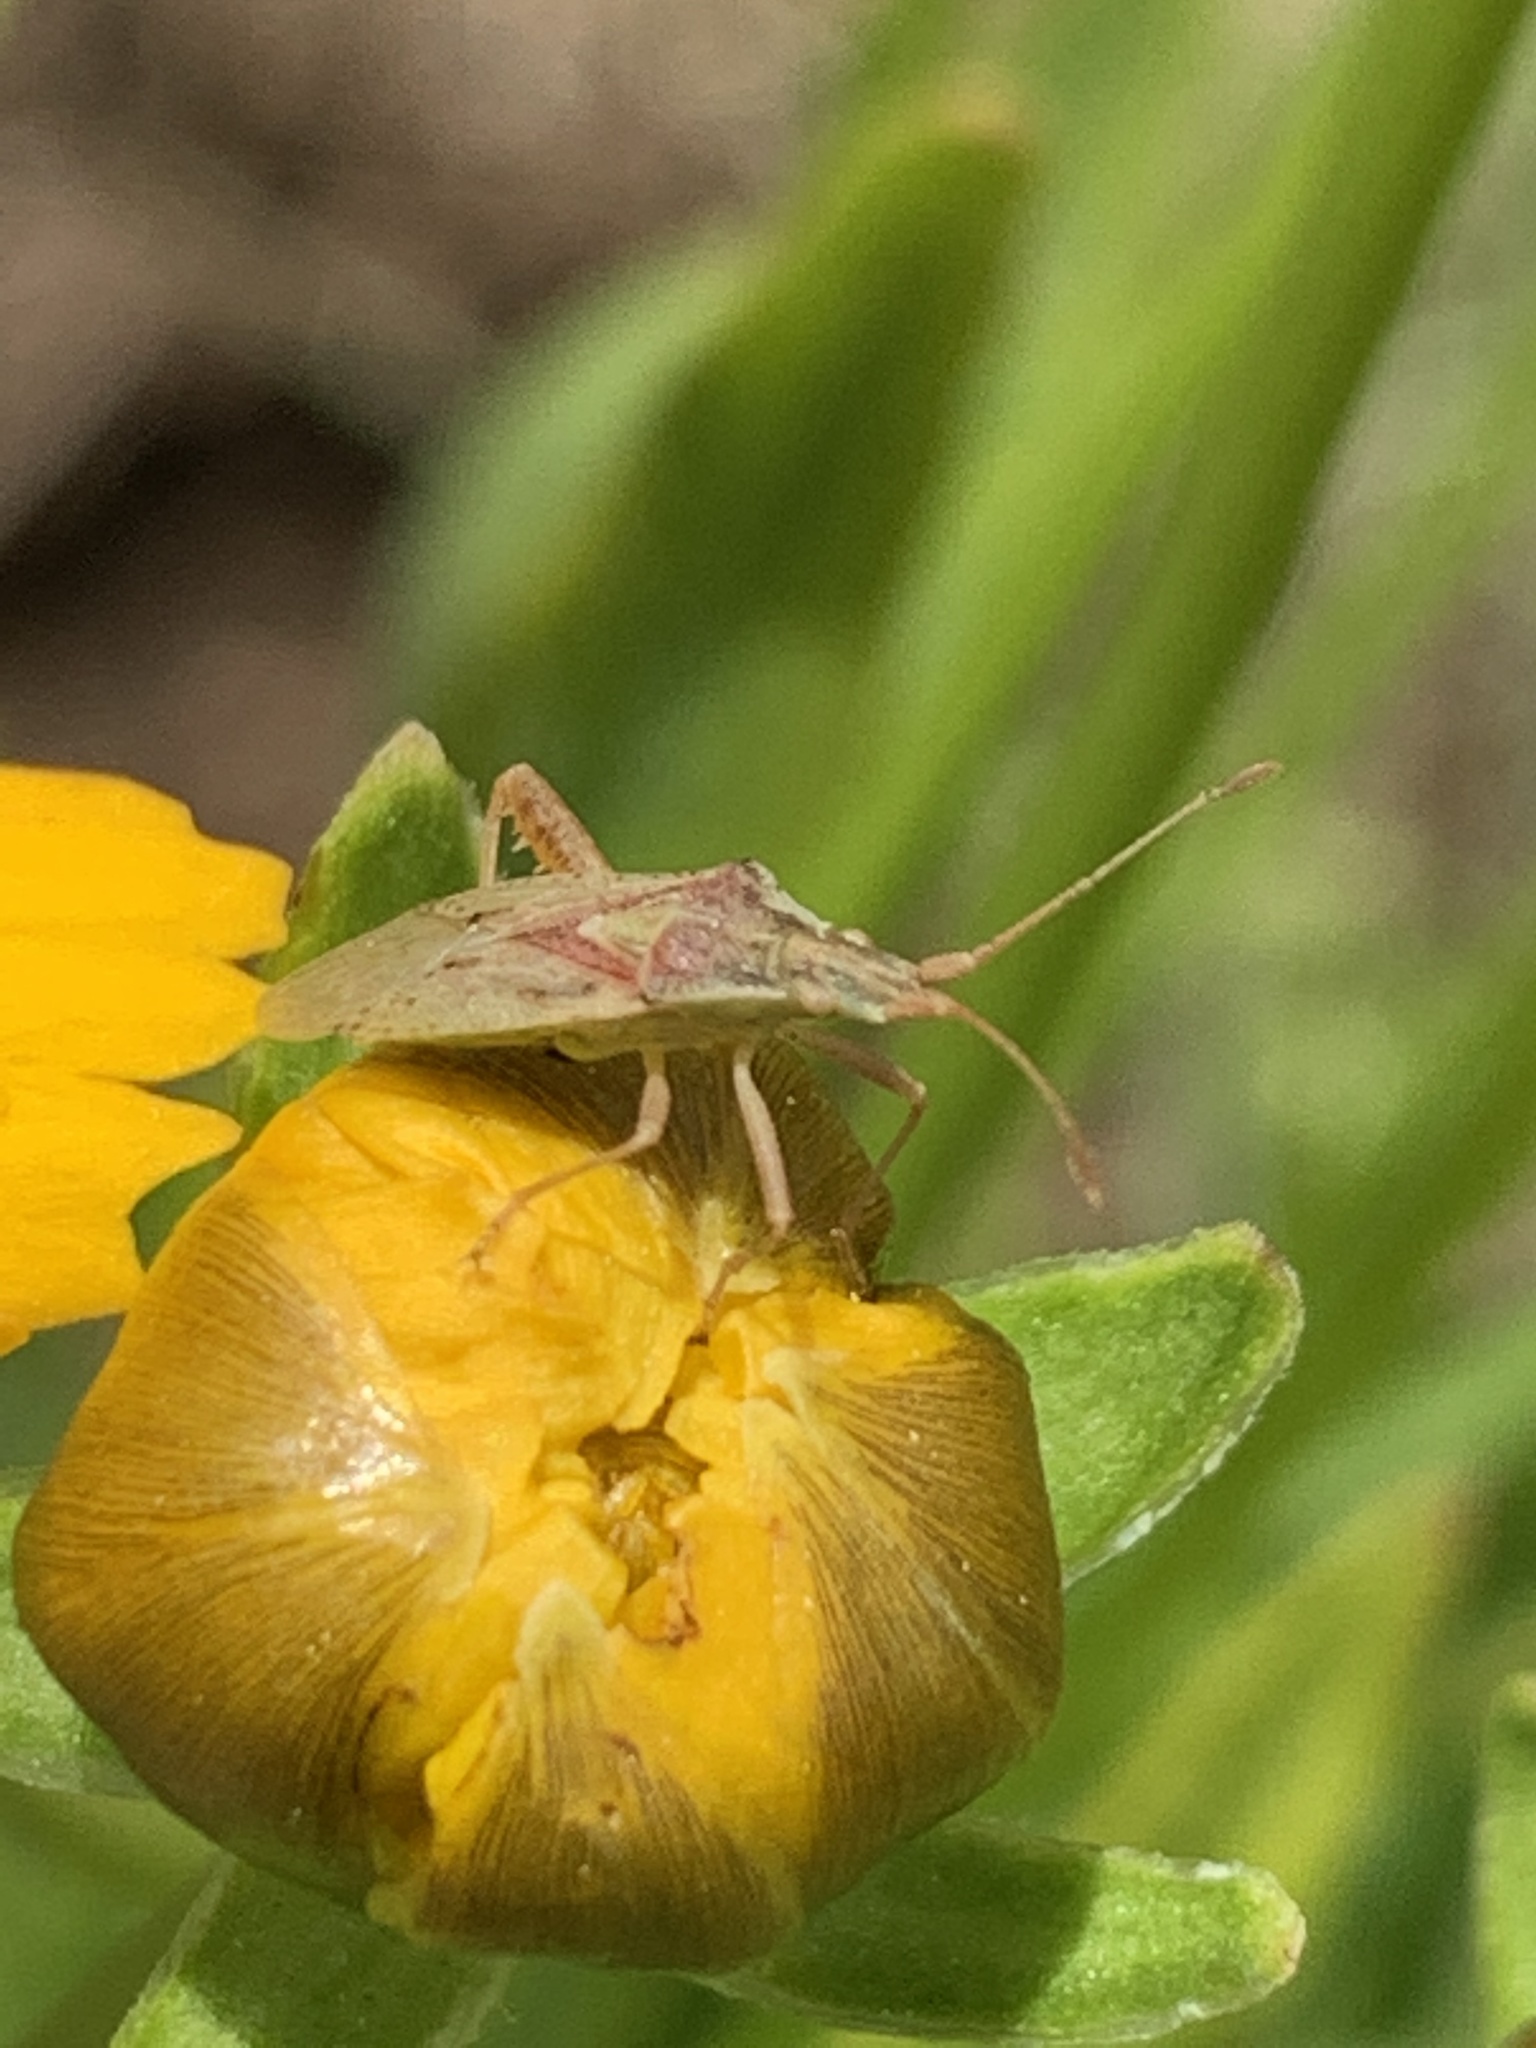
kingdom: Animalia
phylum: Arthropoda
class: Insecta
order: Hemiptera
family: Rhopalidae
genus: Harmostes
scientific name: Harmostes reflexulus
